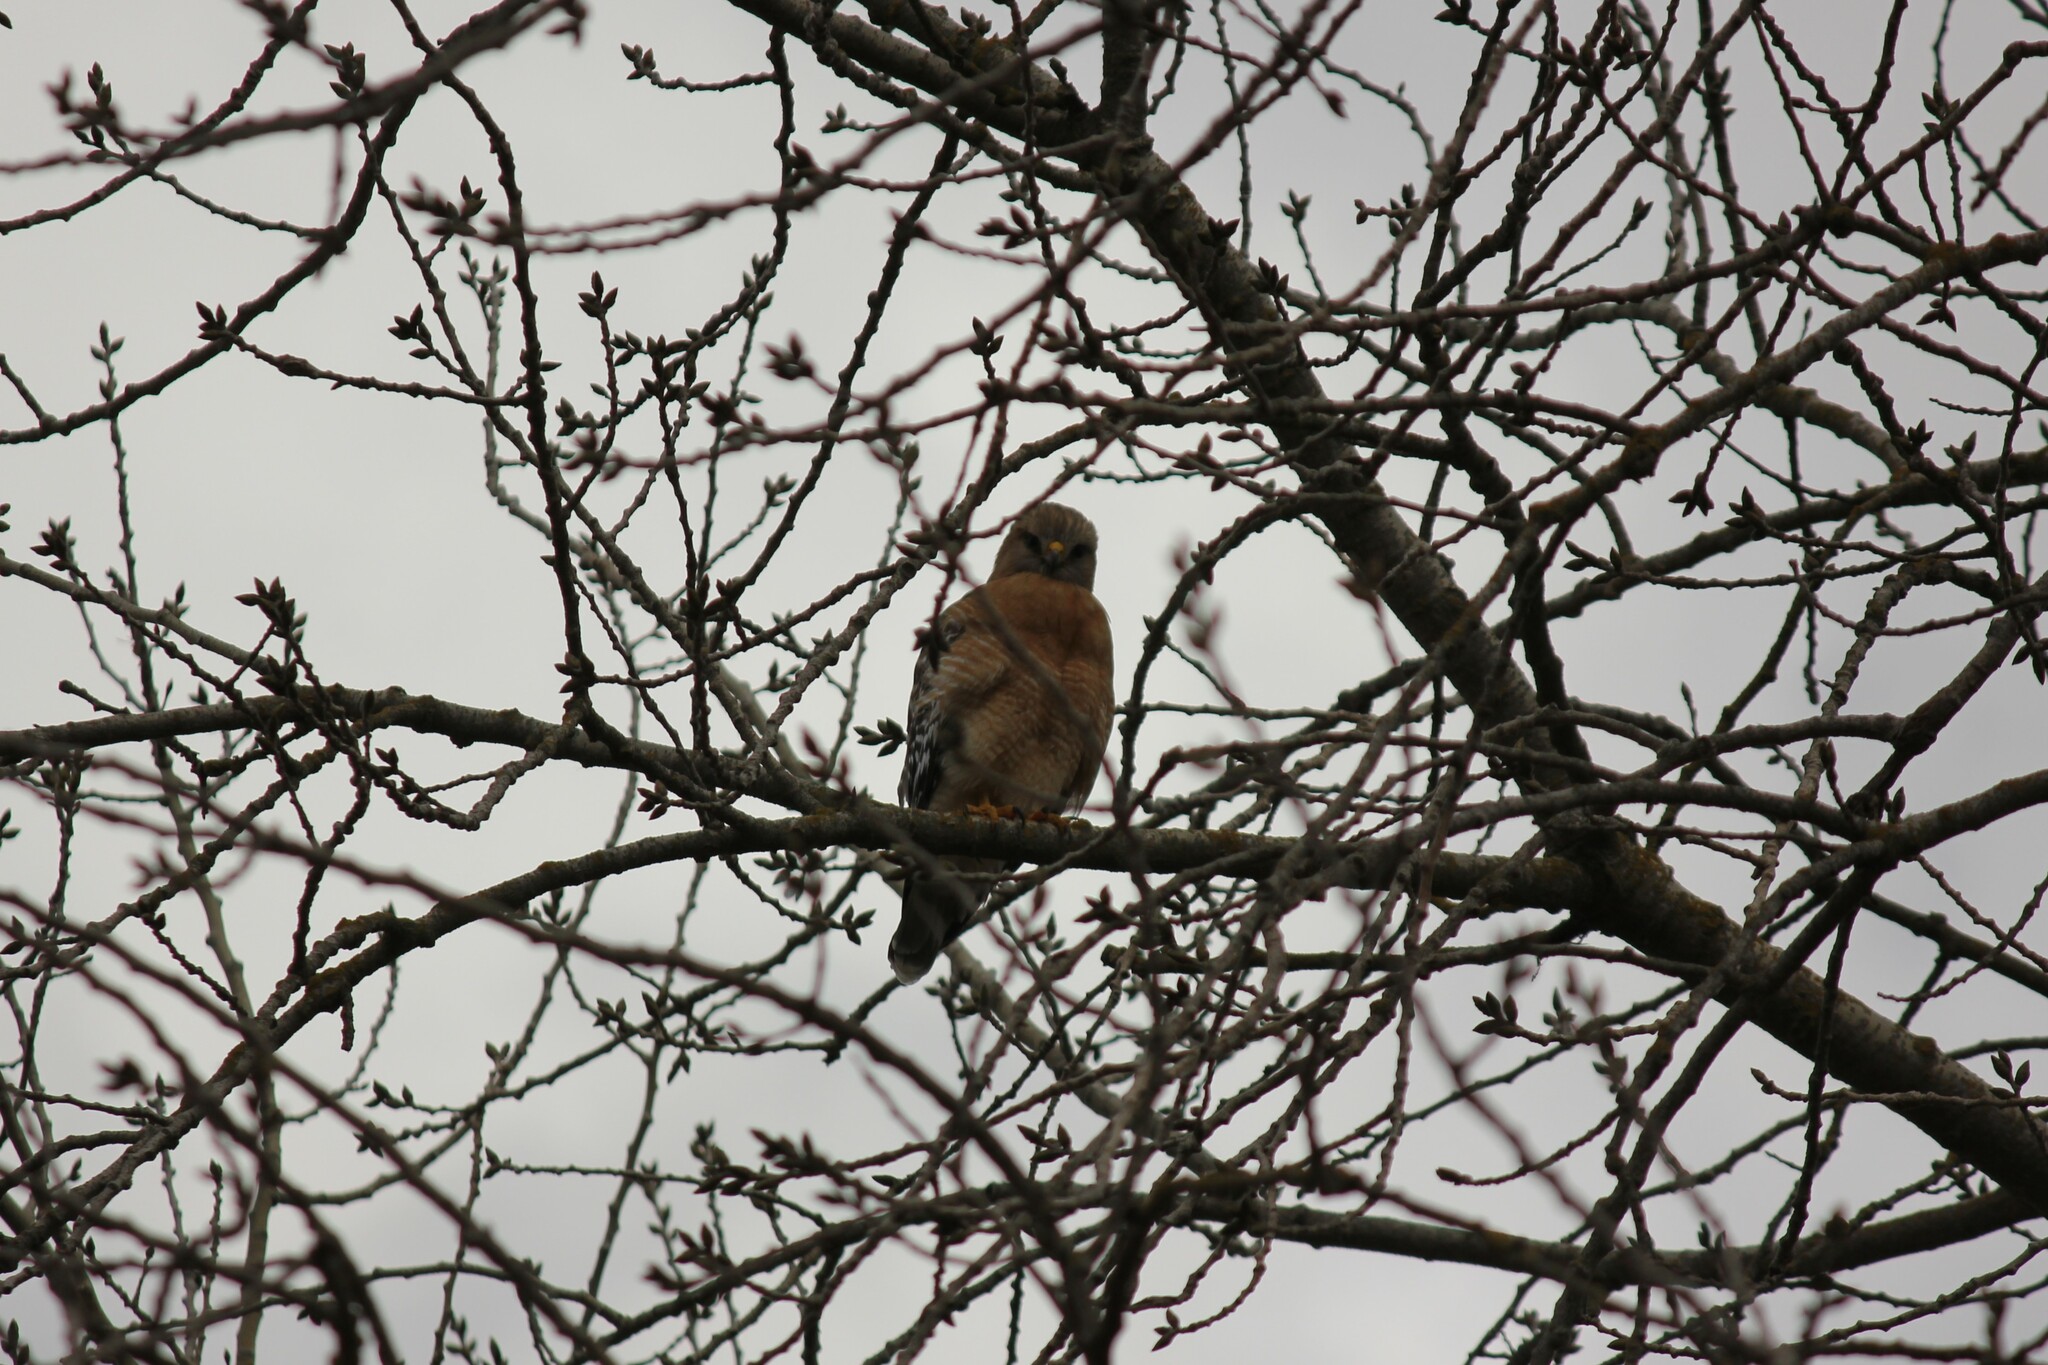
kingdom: Animalia
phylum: Chordata
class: Aves
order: Accipitriformes
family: Accipitridae
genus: Buteo
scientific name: Buteo lineatus
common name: Red-shouldered hawk
